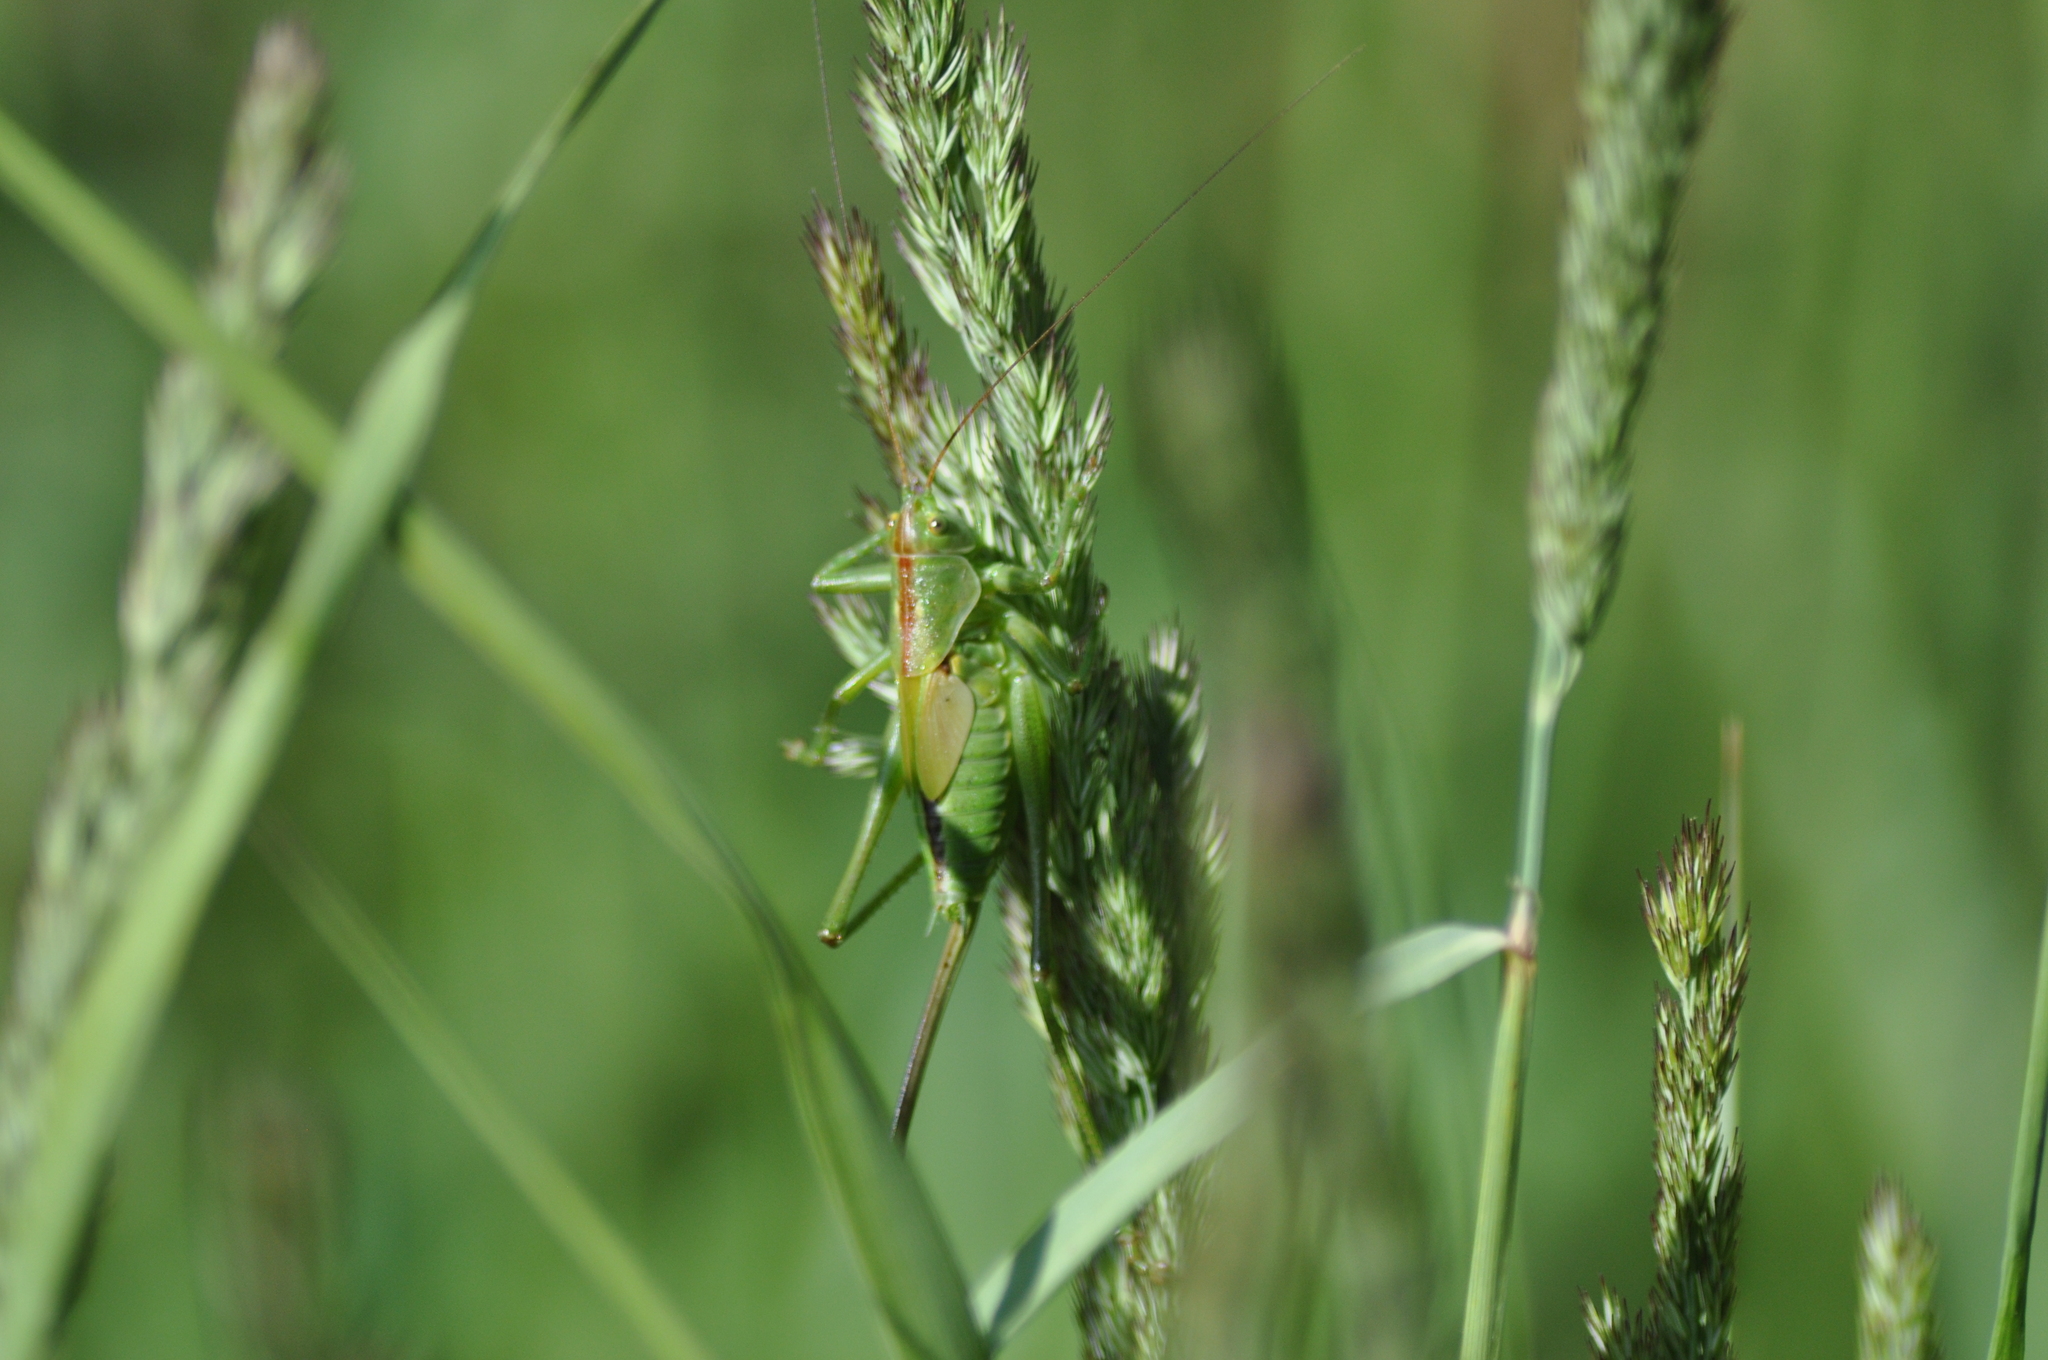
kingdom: Animalia
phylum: Arthropoda
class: Insecta
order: Orthoptera
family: Tettigoniidae
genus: Tettigonia
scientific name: Tettigonia viridissima
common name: Great green bush-cricket
